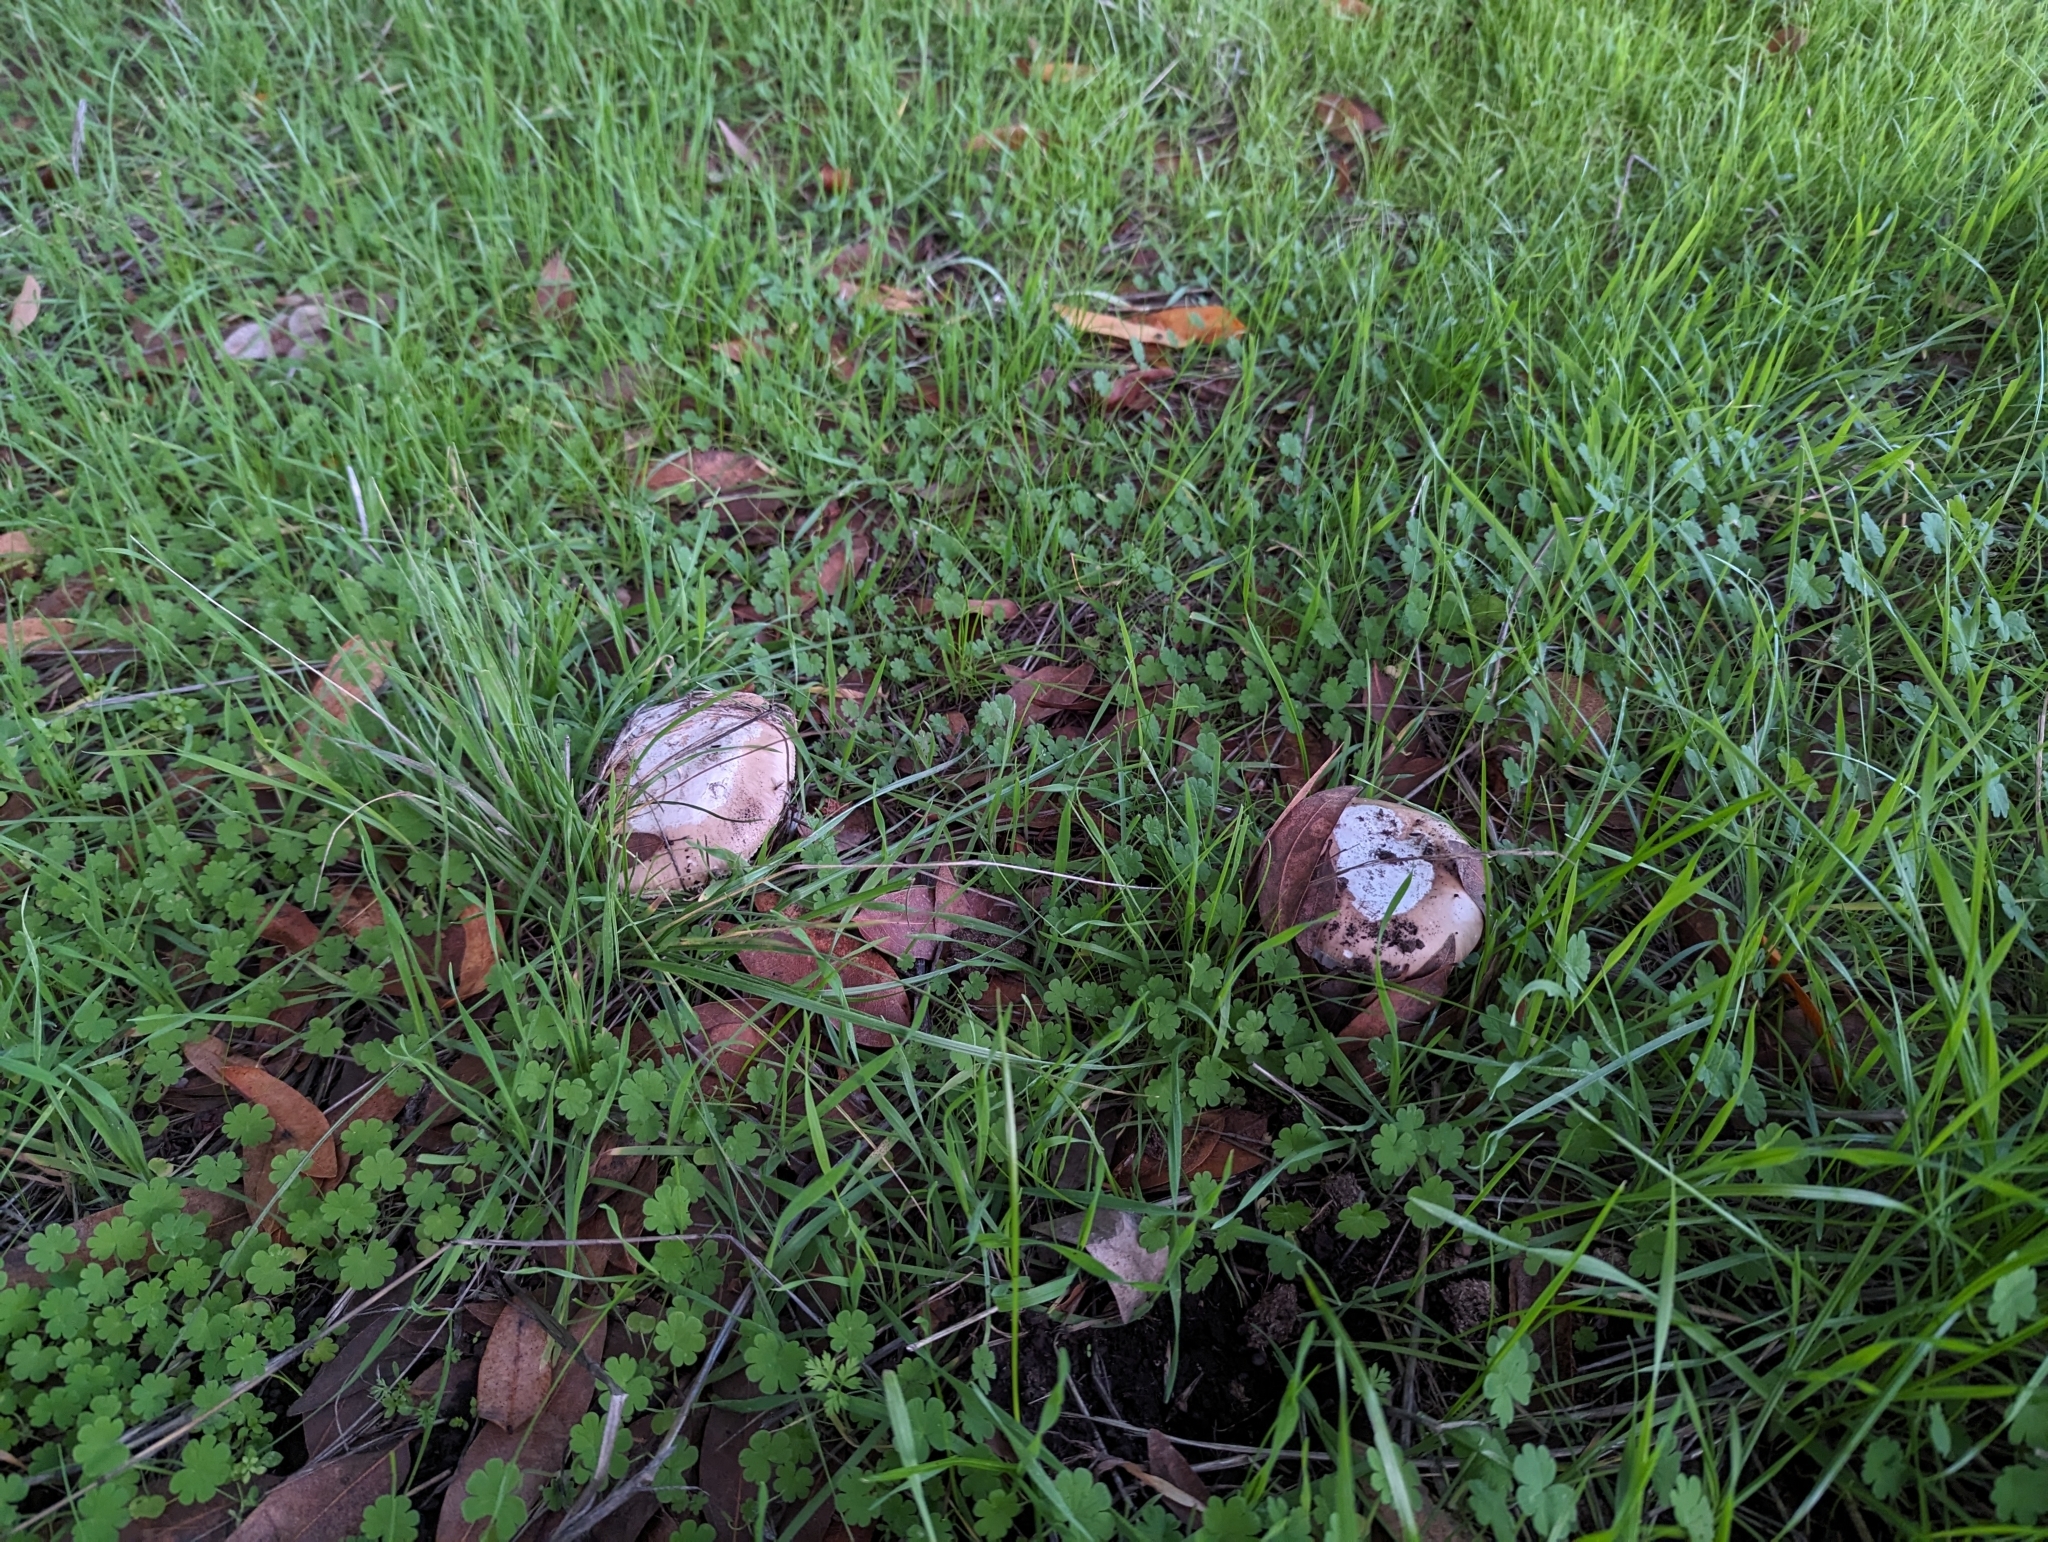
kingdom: Fungi
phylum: Basidiomycota
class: Agaricomycetes
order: Agaricales
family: Amanitaceae
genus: Amanita
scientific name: Amanita velosa
